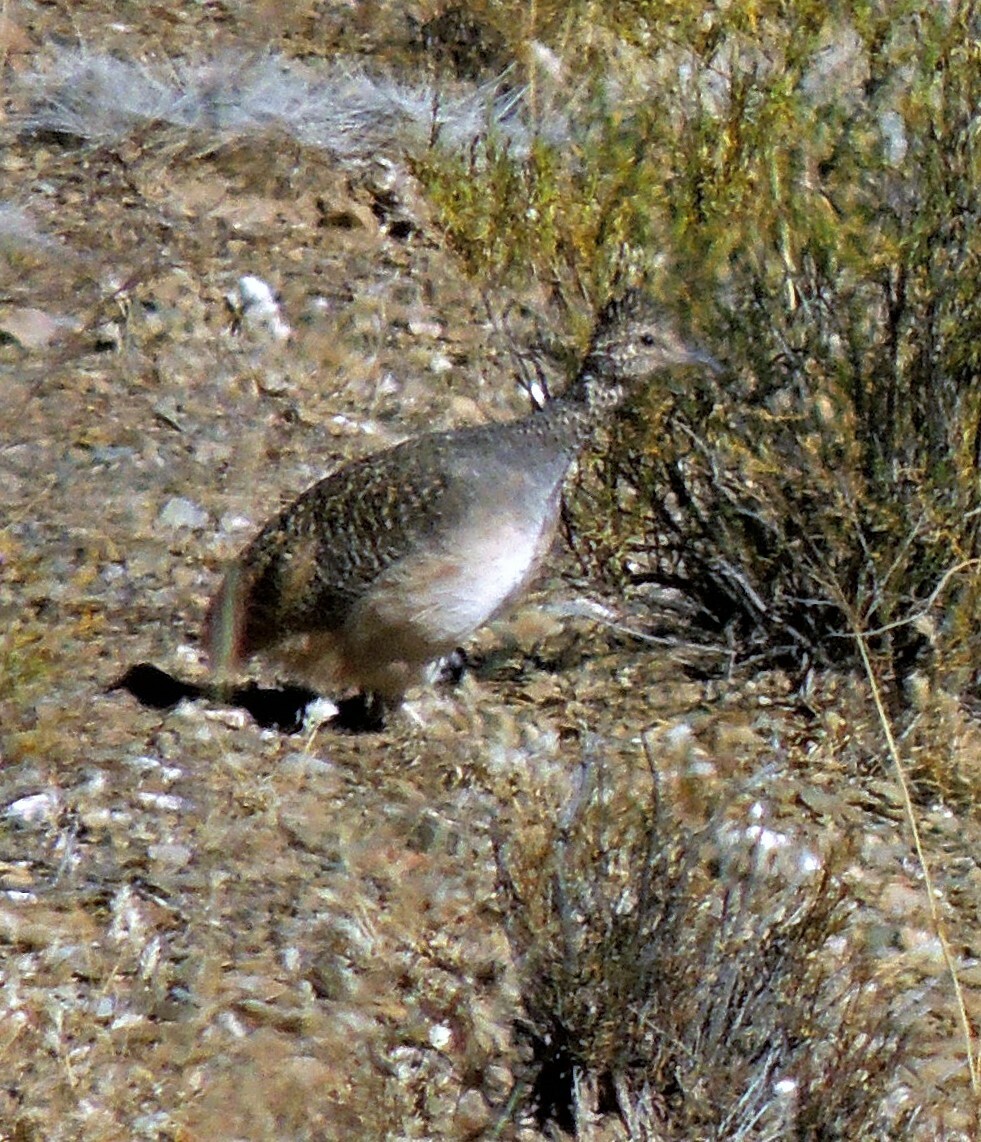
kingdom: Animalia
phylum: Chordata
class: Aves
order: Tinamiformes
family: Tinamidae
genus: Nothoprocta
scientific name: Nothoprocta ornata
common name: Ornate tinamou
